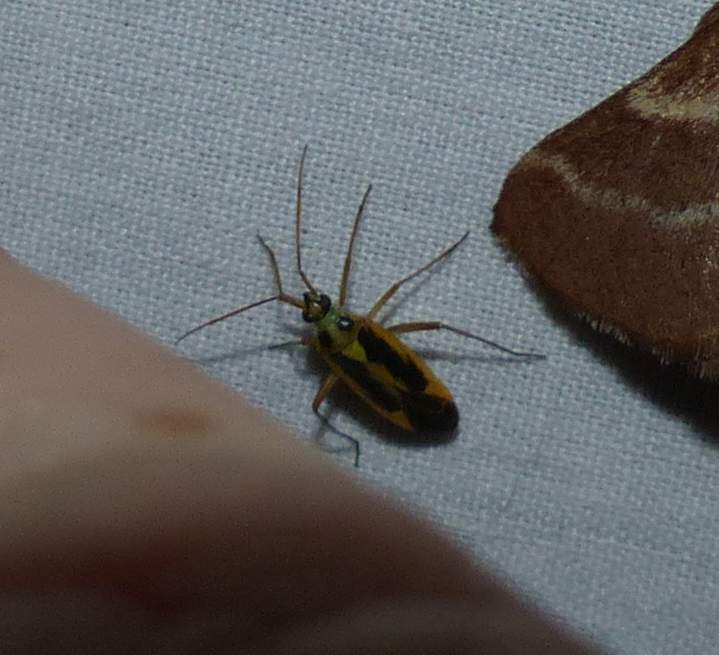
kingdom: Animalia
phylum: Arthropoda
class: Insecta
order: Hemiptera
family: Miridae
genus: Stenotus
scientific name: Stenotus binotatus
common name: Plant bug
